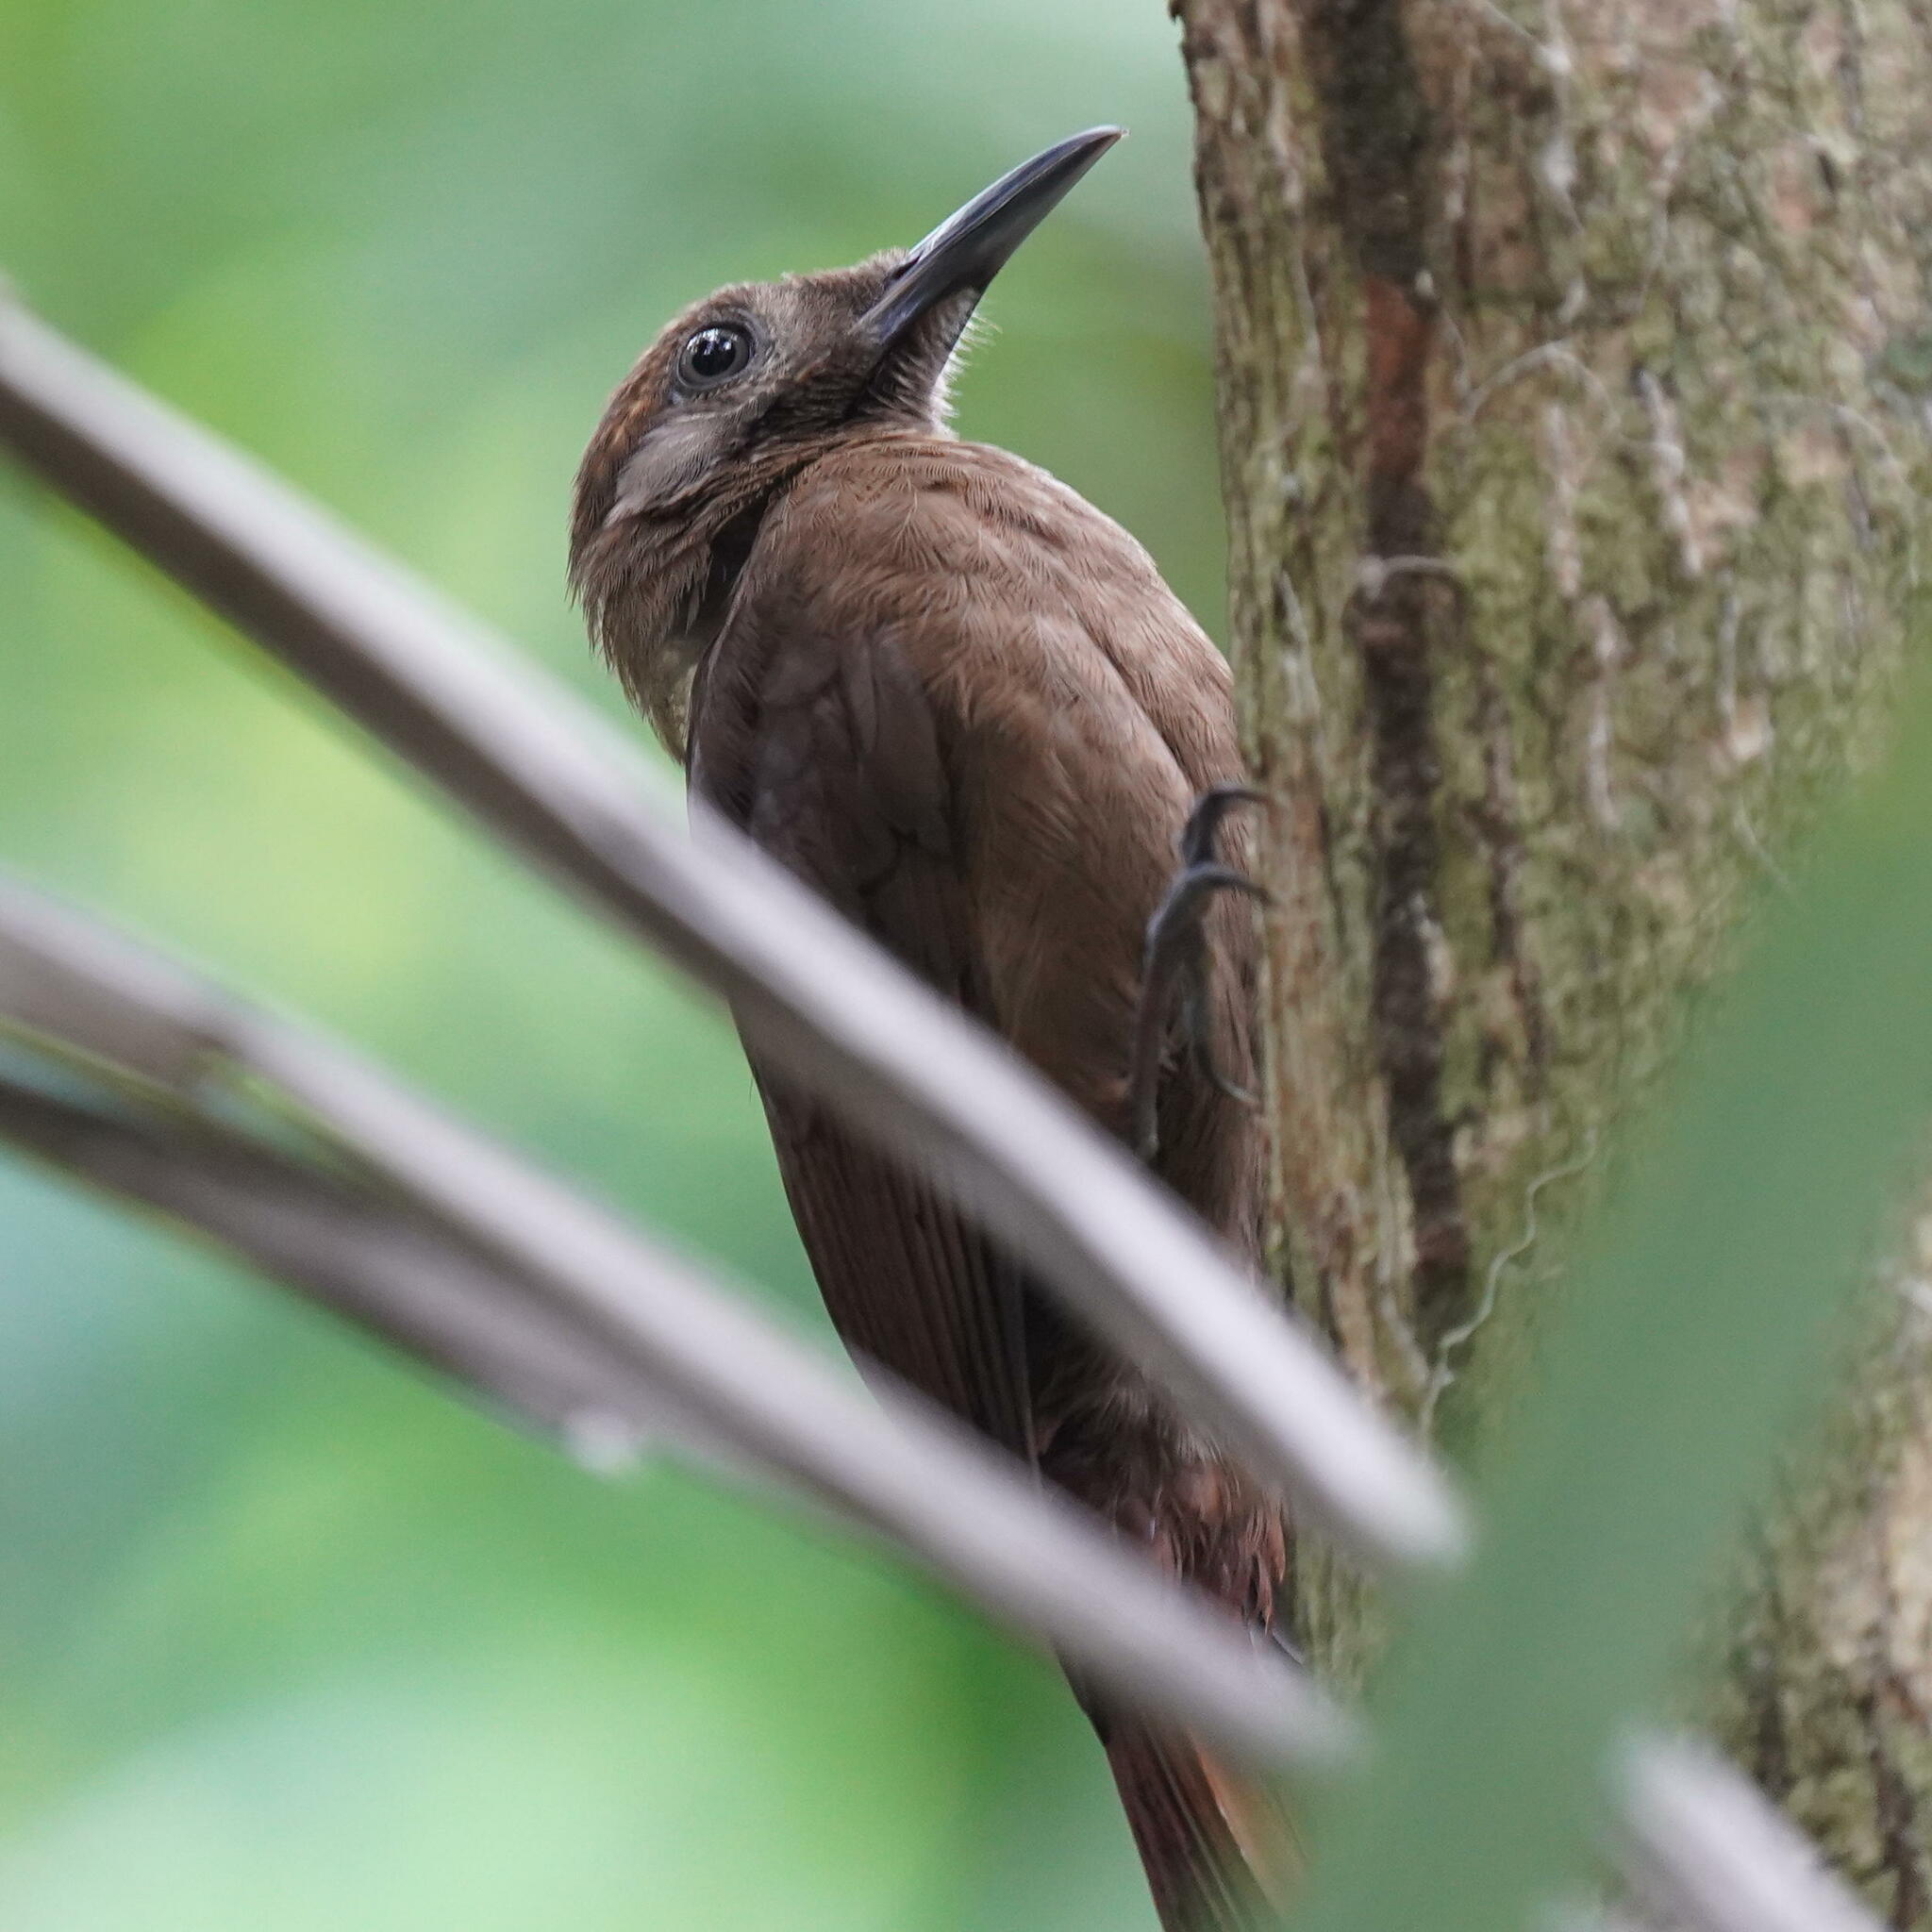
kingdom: Animalia
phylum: Chordata
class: Aves
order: Passeriformes
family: Furnariidae
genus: Dendrocincla
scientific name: Dendrocincla fuliginosa
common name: Plain-brown woodcreeper
